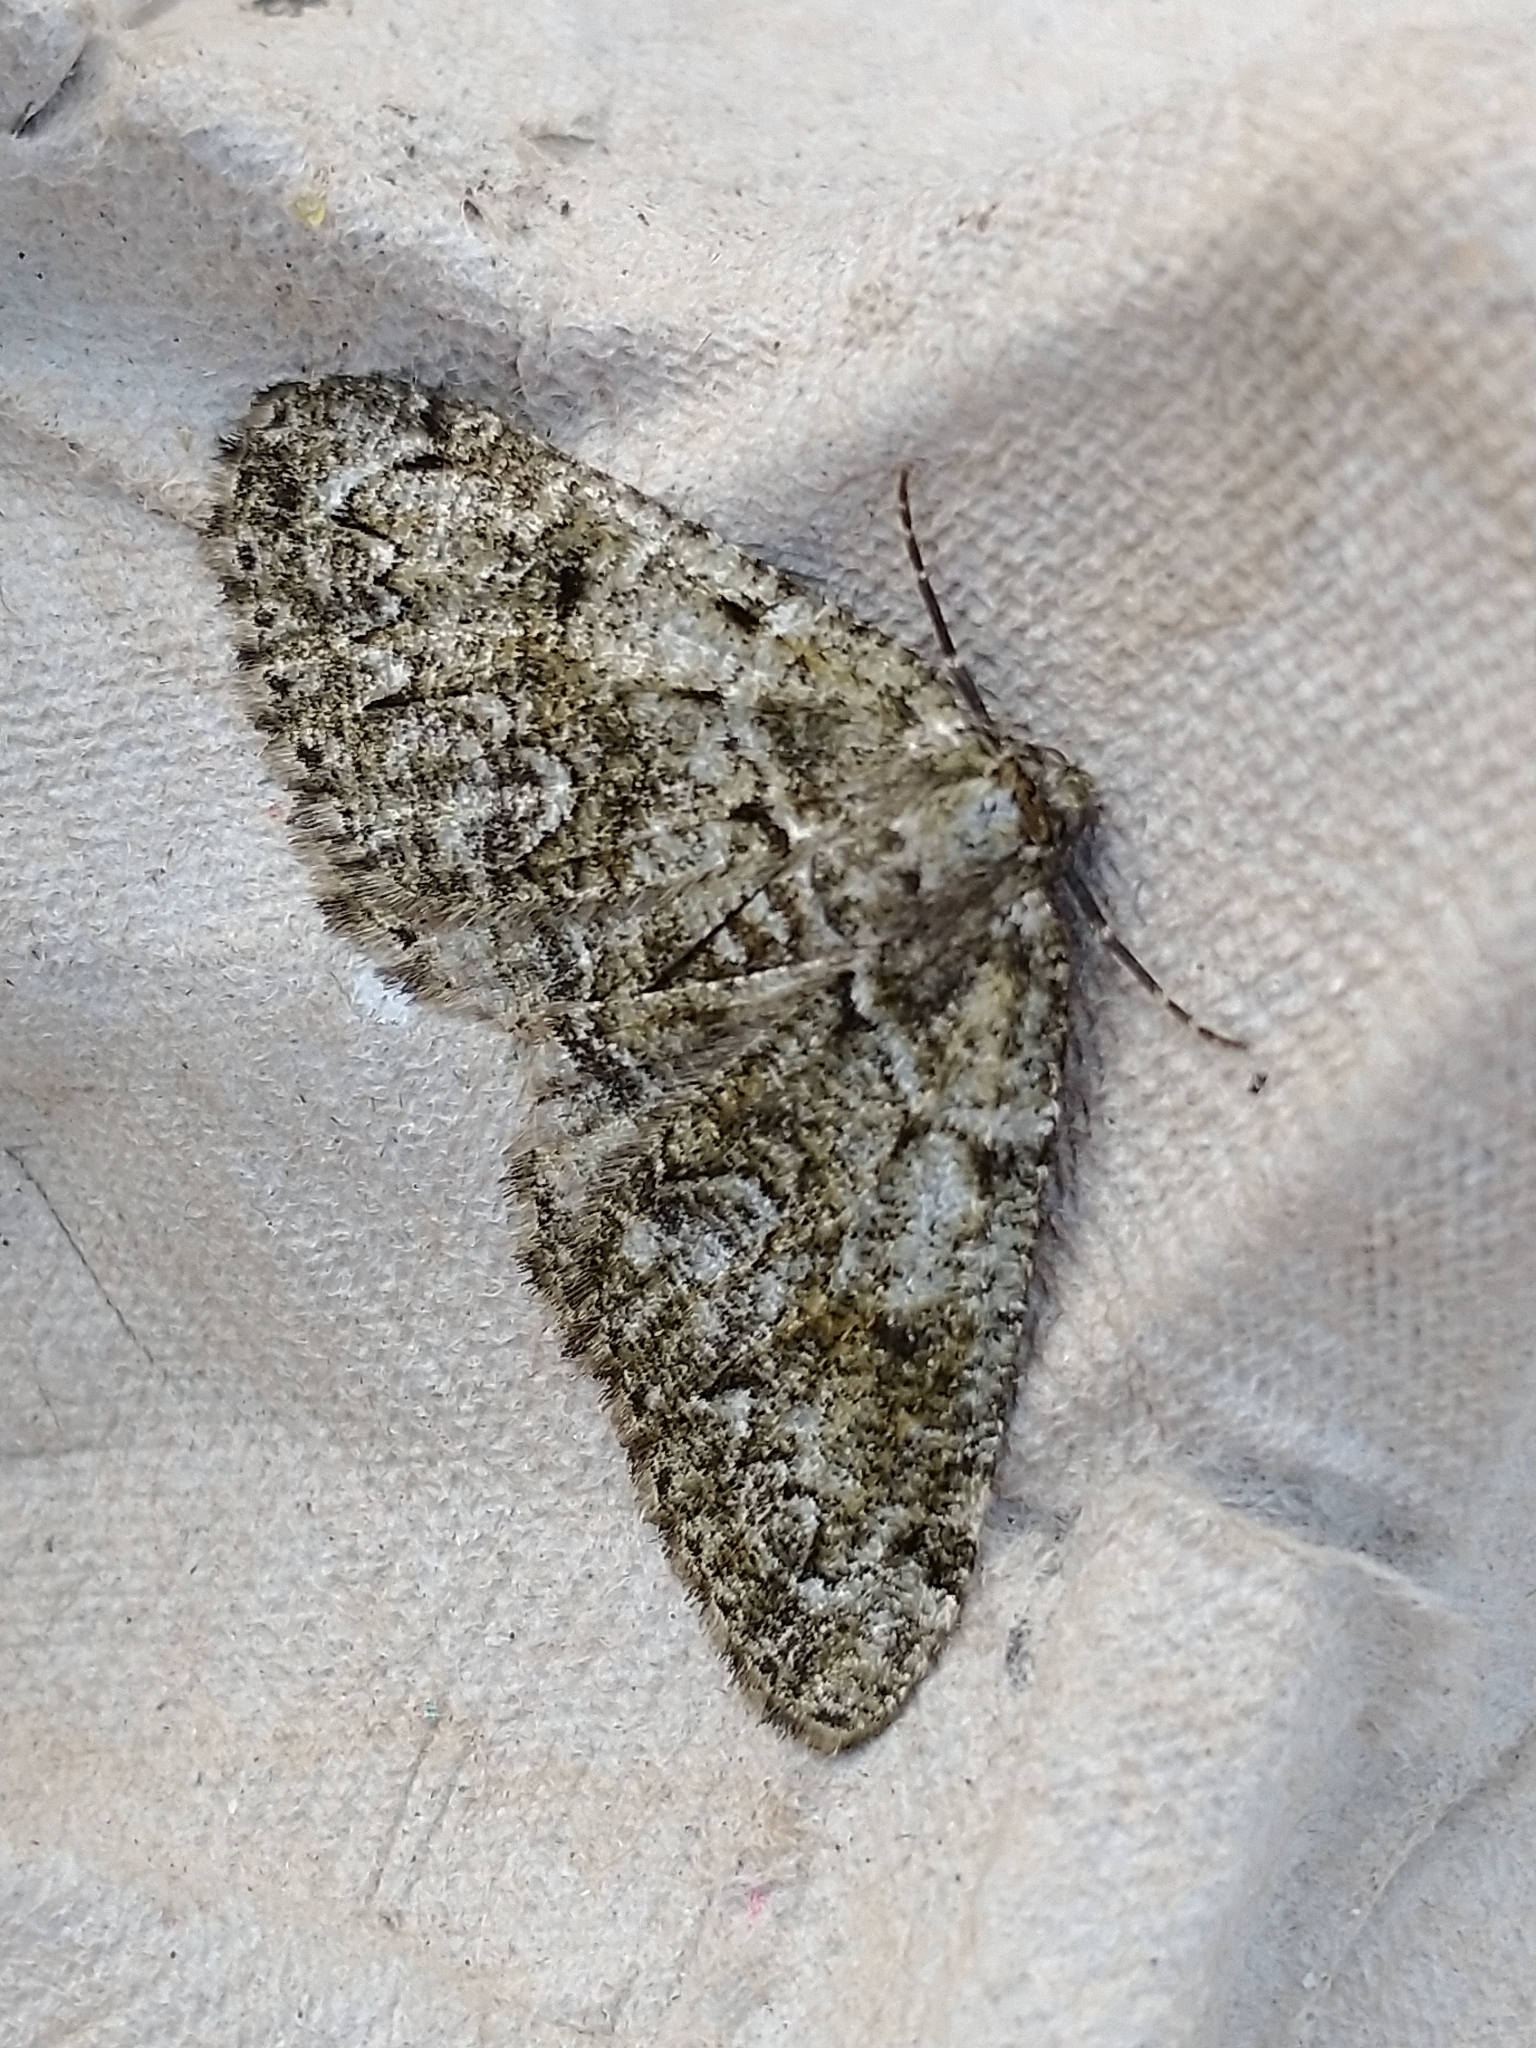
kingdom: Animalia
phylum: Arthropoda
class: Insecta
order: Lepidoptera
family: Geometridae
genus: Cleorodes
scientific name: Cleorodes lichenaria
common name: Brussels lace
